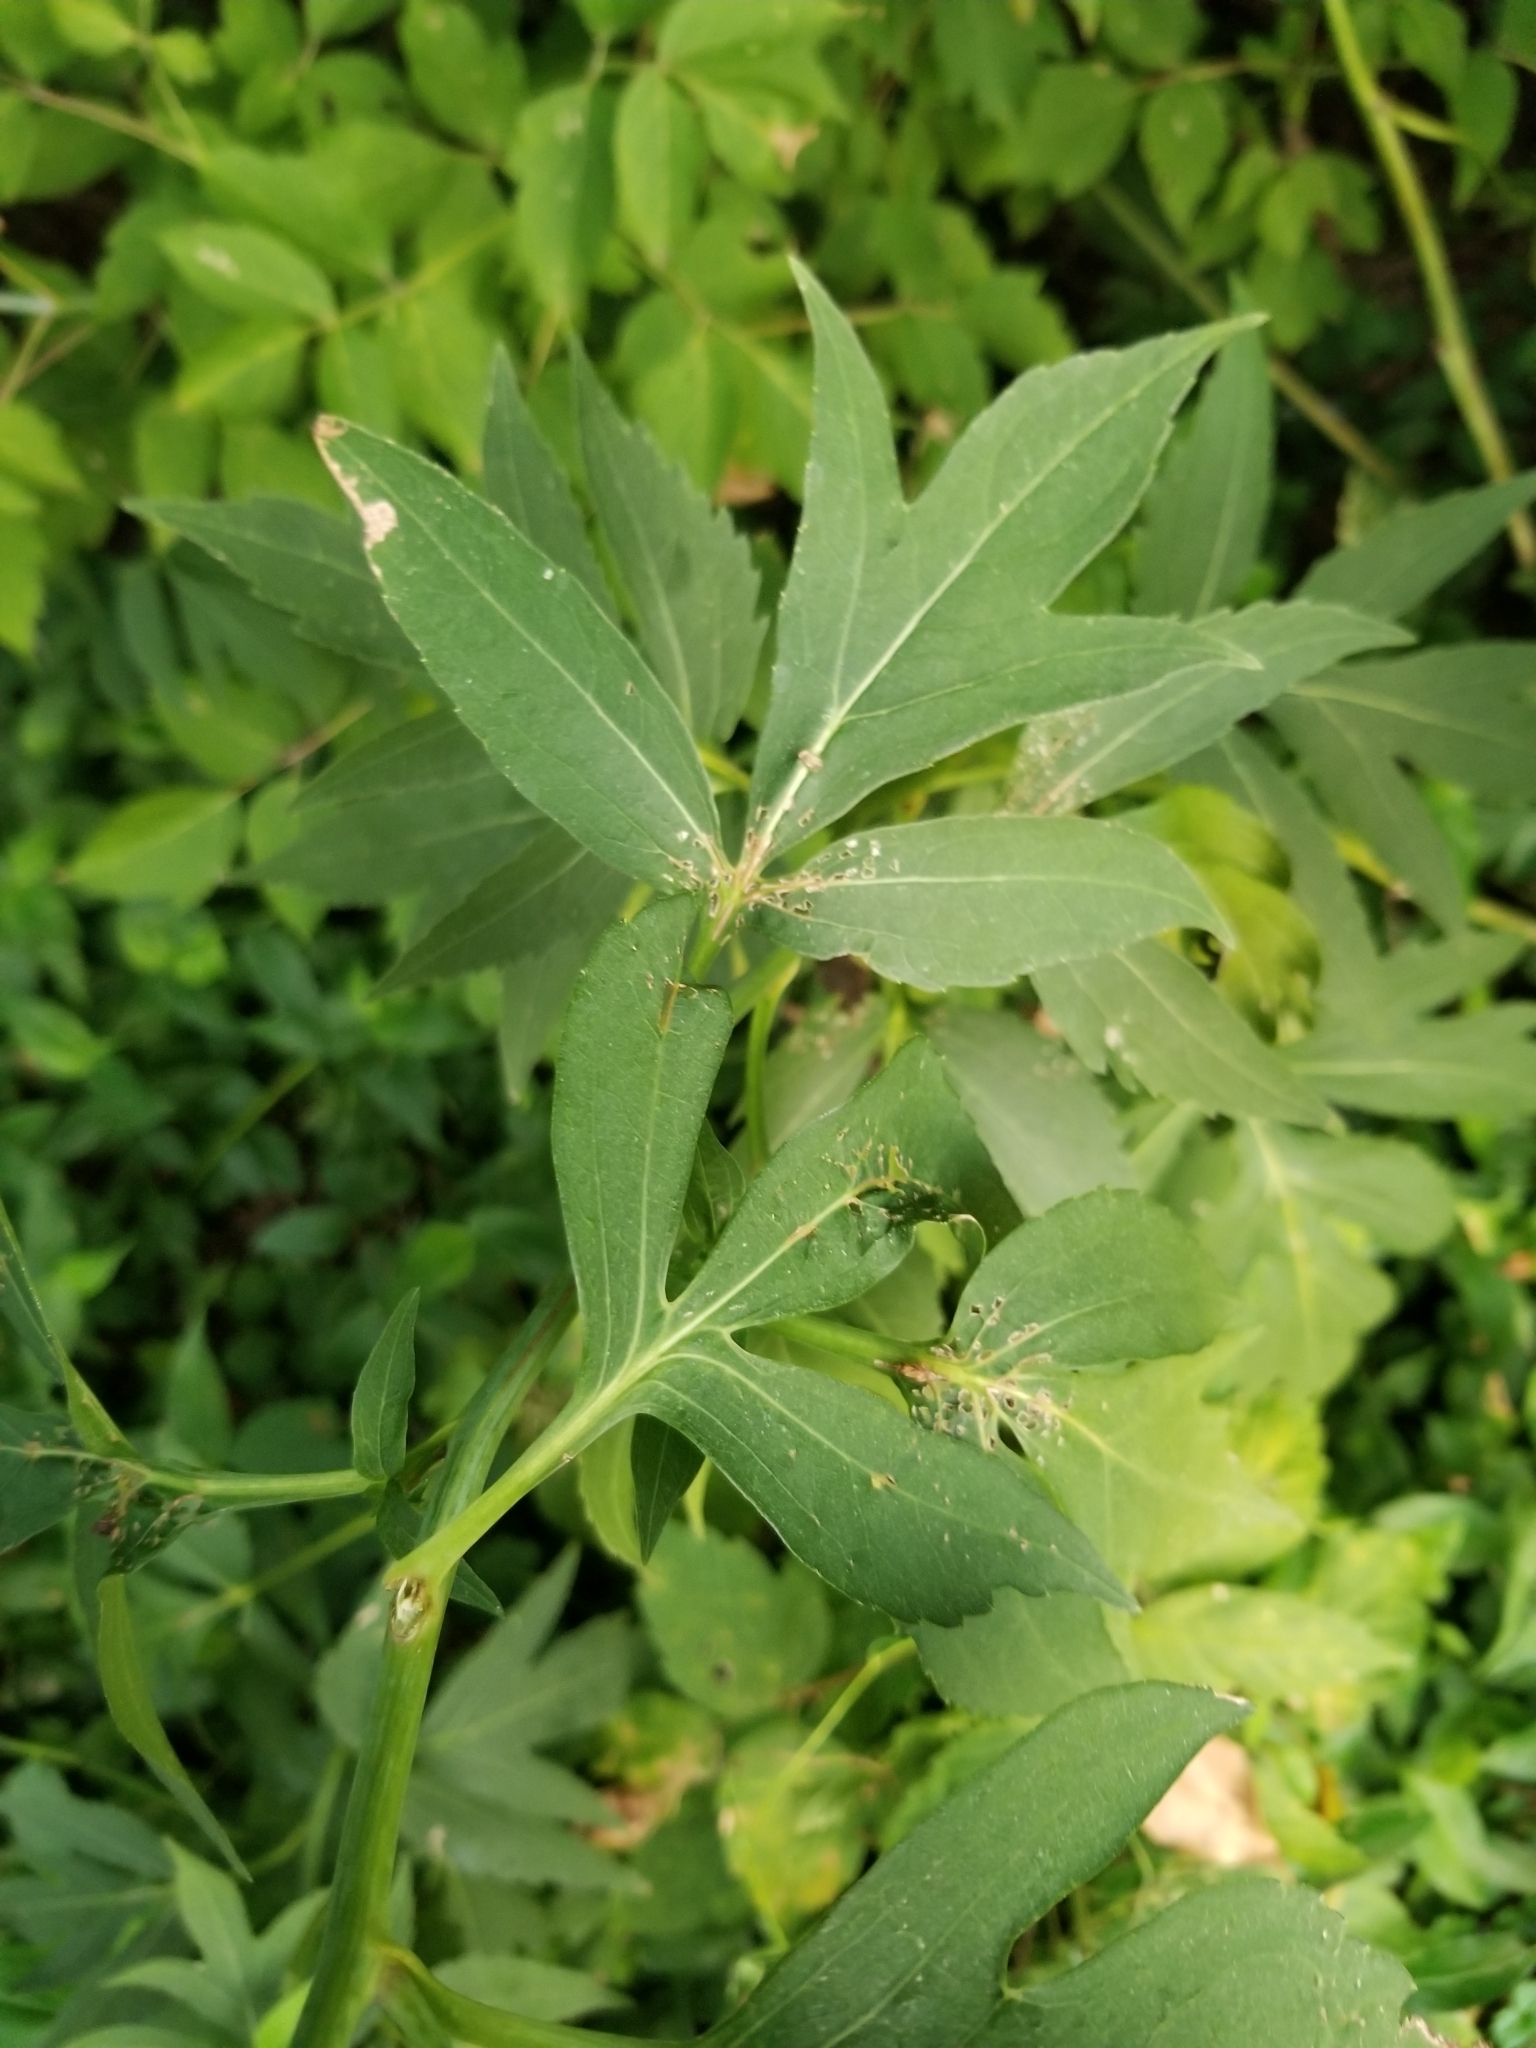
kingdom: Plantae
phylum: Tracheophyta
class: Magnoliopsida
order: Asterales
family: Asteraceae
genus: Rudbeckia
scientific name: Rudbeckia laciniata
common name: Coneflower
